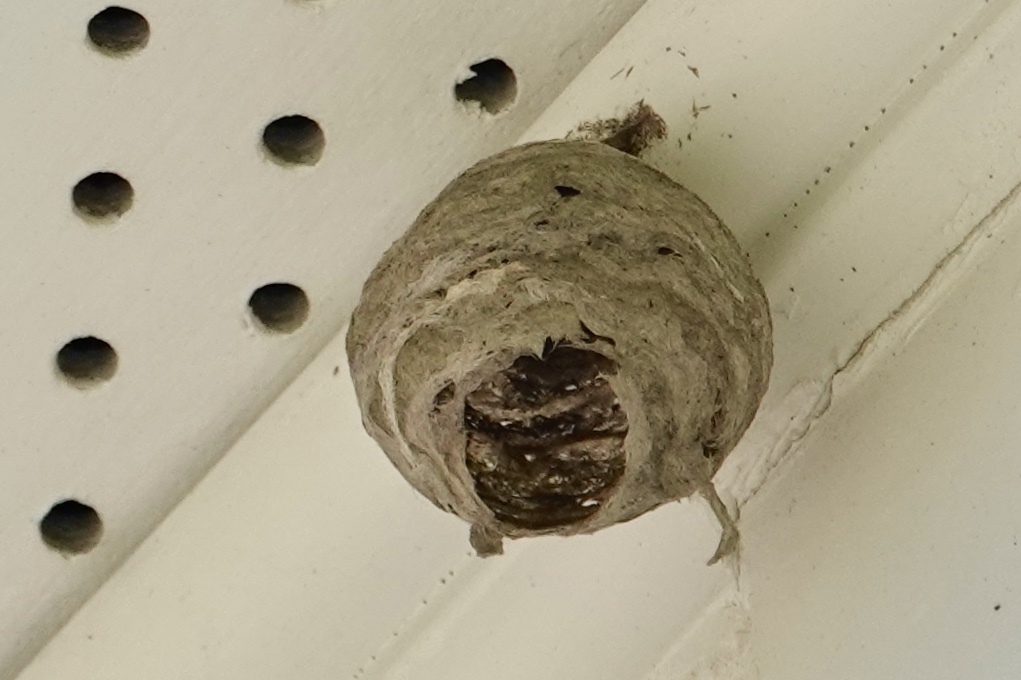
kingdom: Animalia
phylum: Arthropoda
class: Insecta
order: Hymenoptera
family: Vespidae
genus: Dolichovespula
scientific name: Dolichovespula
